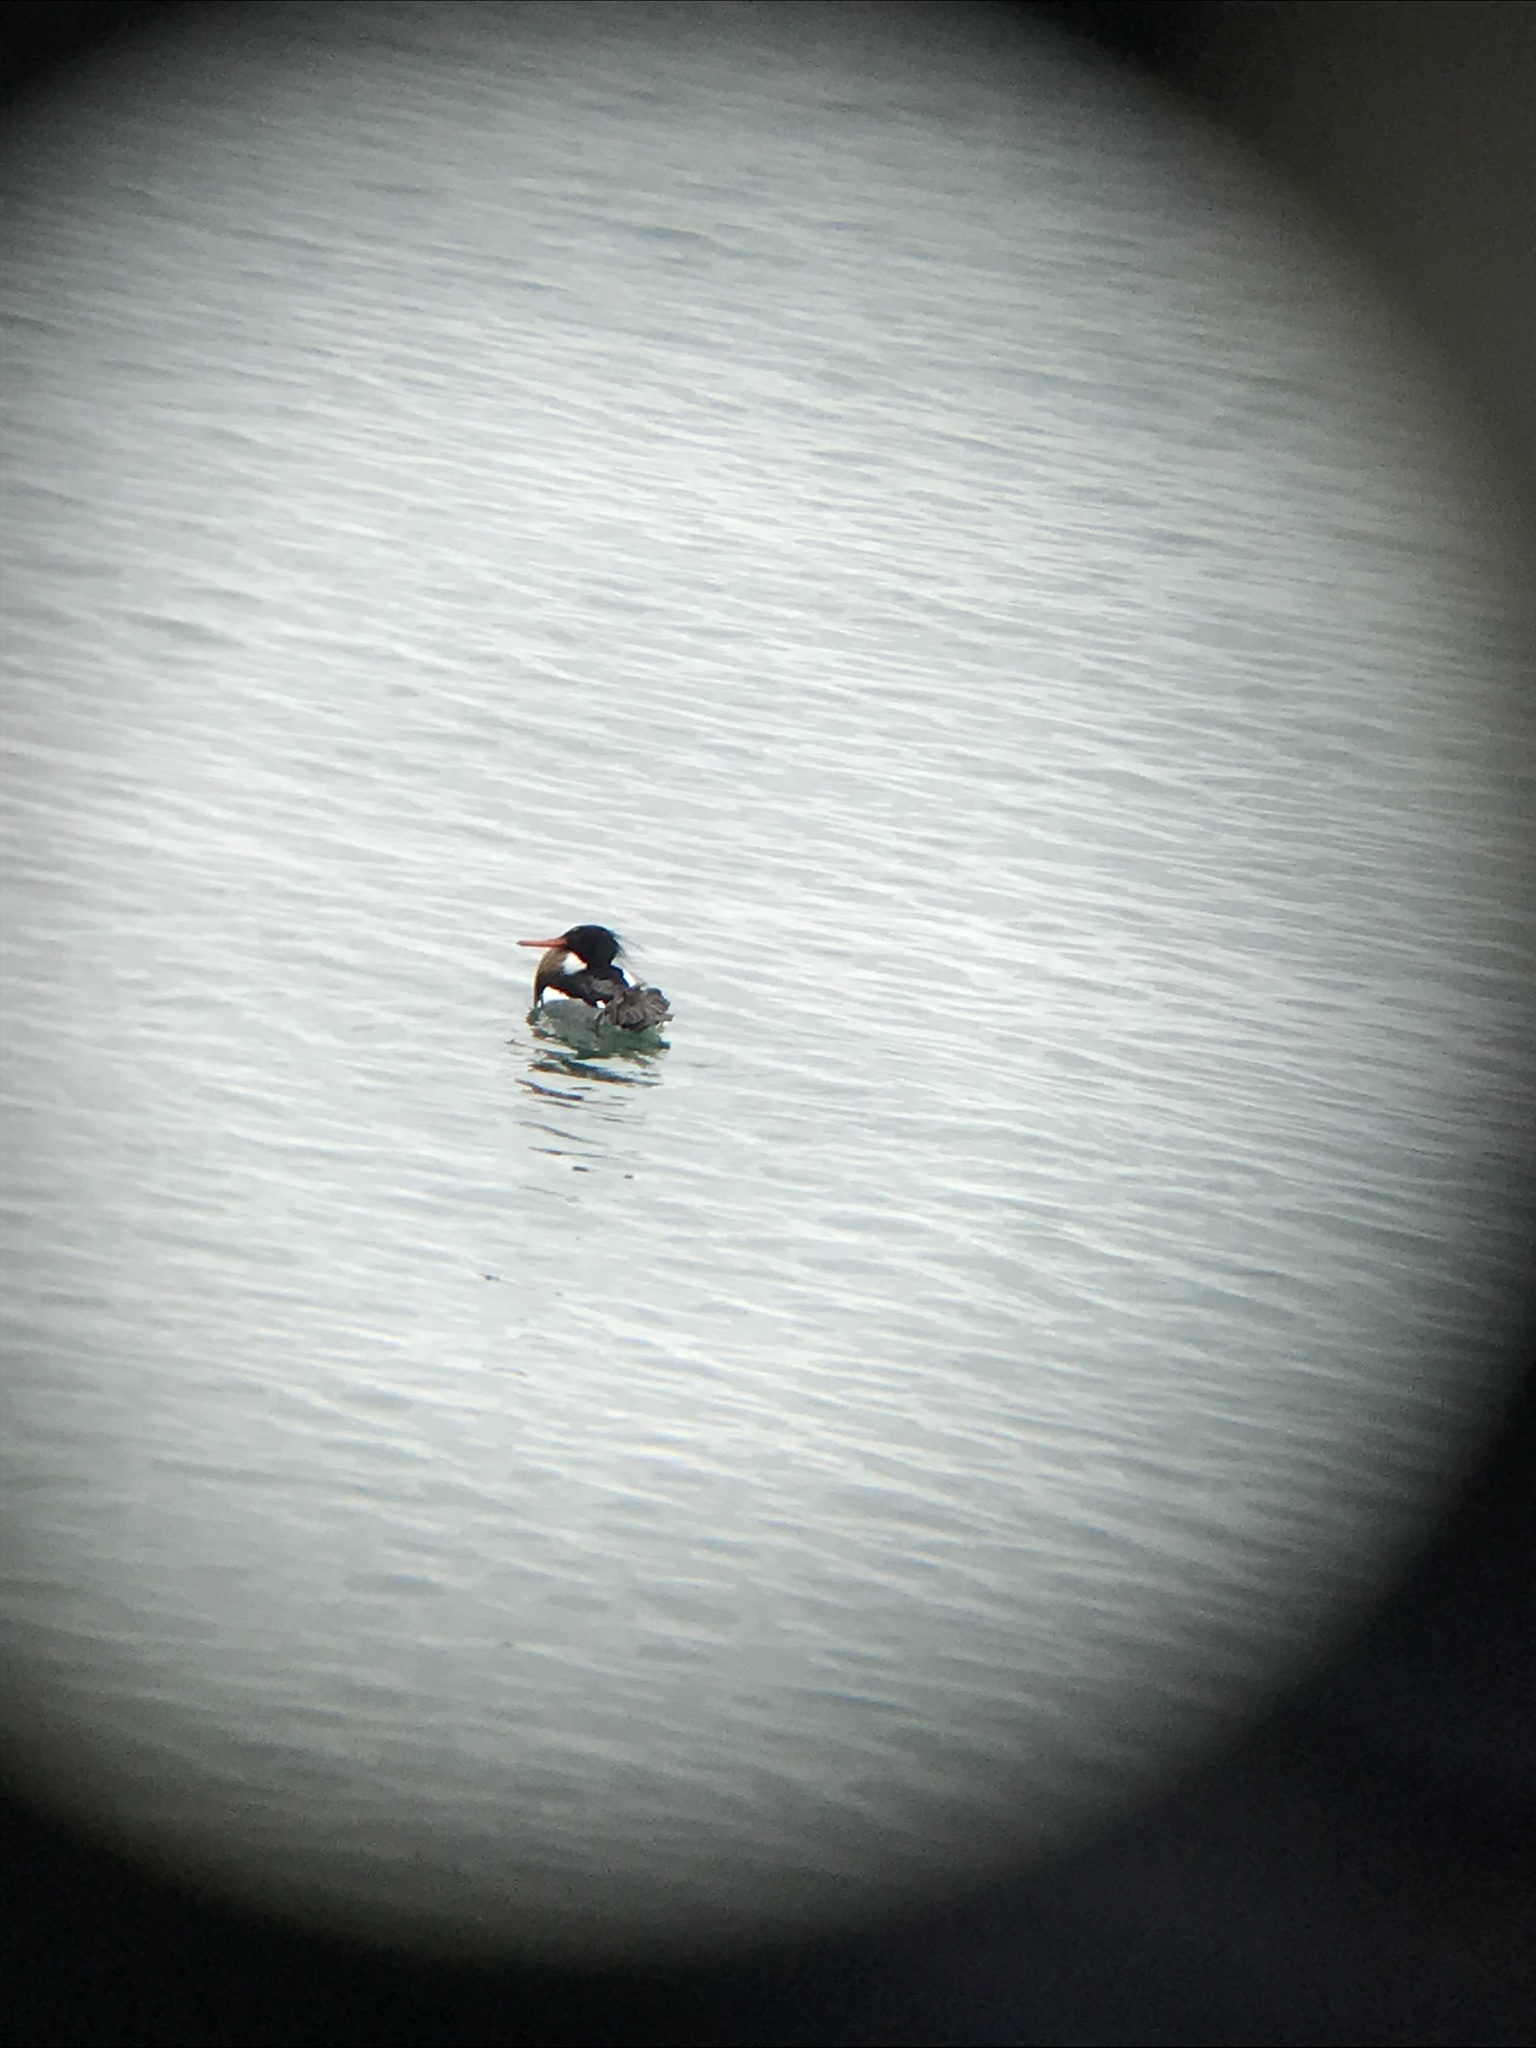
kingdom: Animalia
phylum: Chordata
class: Aves
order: Anseriformes
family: Anatidae
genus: Mergus
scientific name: Mergus serrator
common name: Red-breasted merganser
